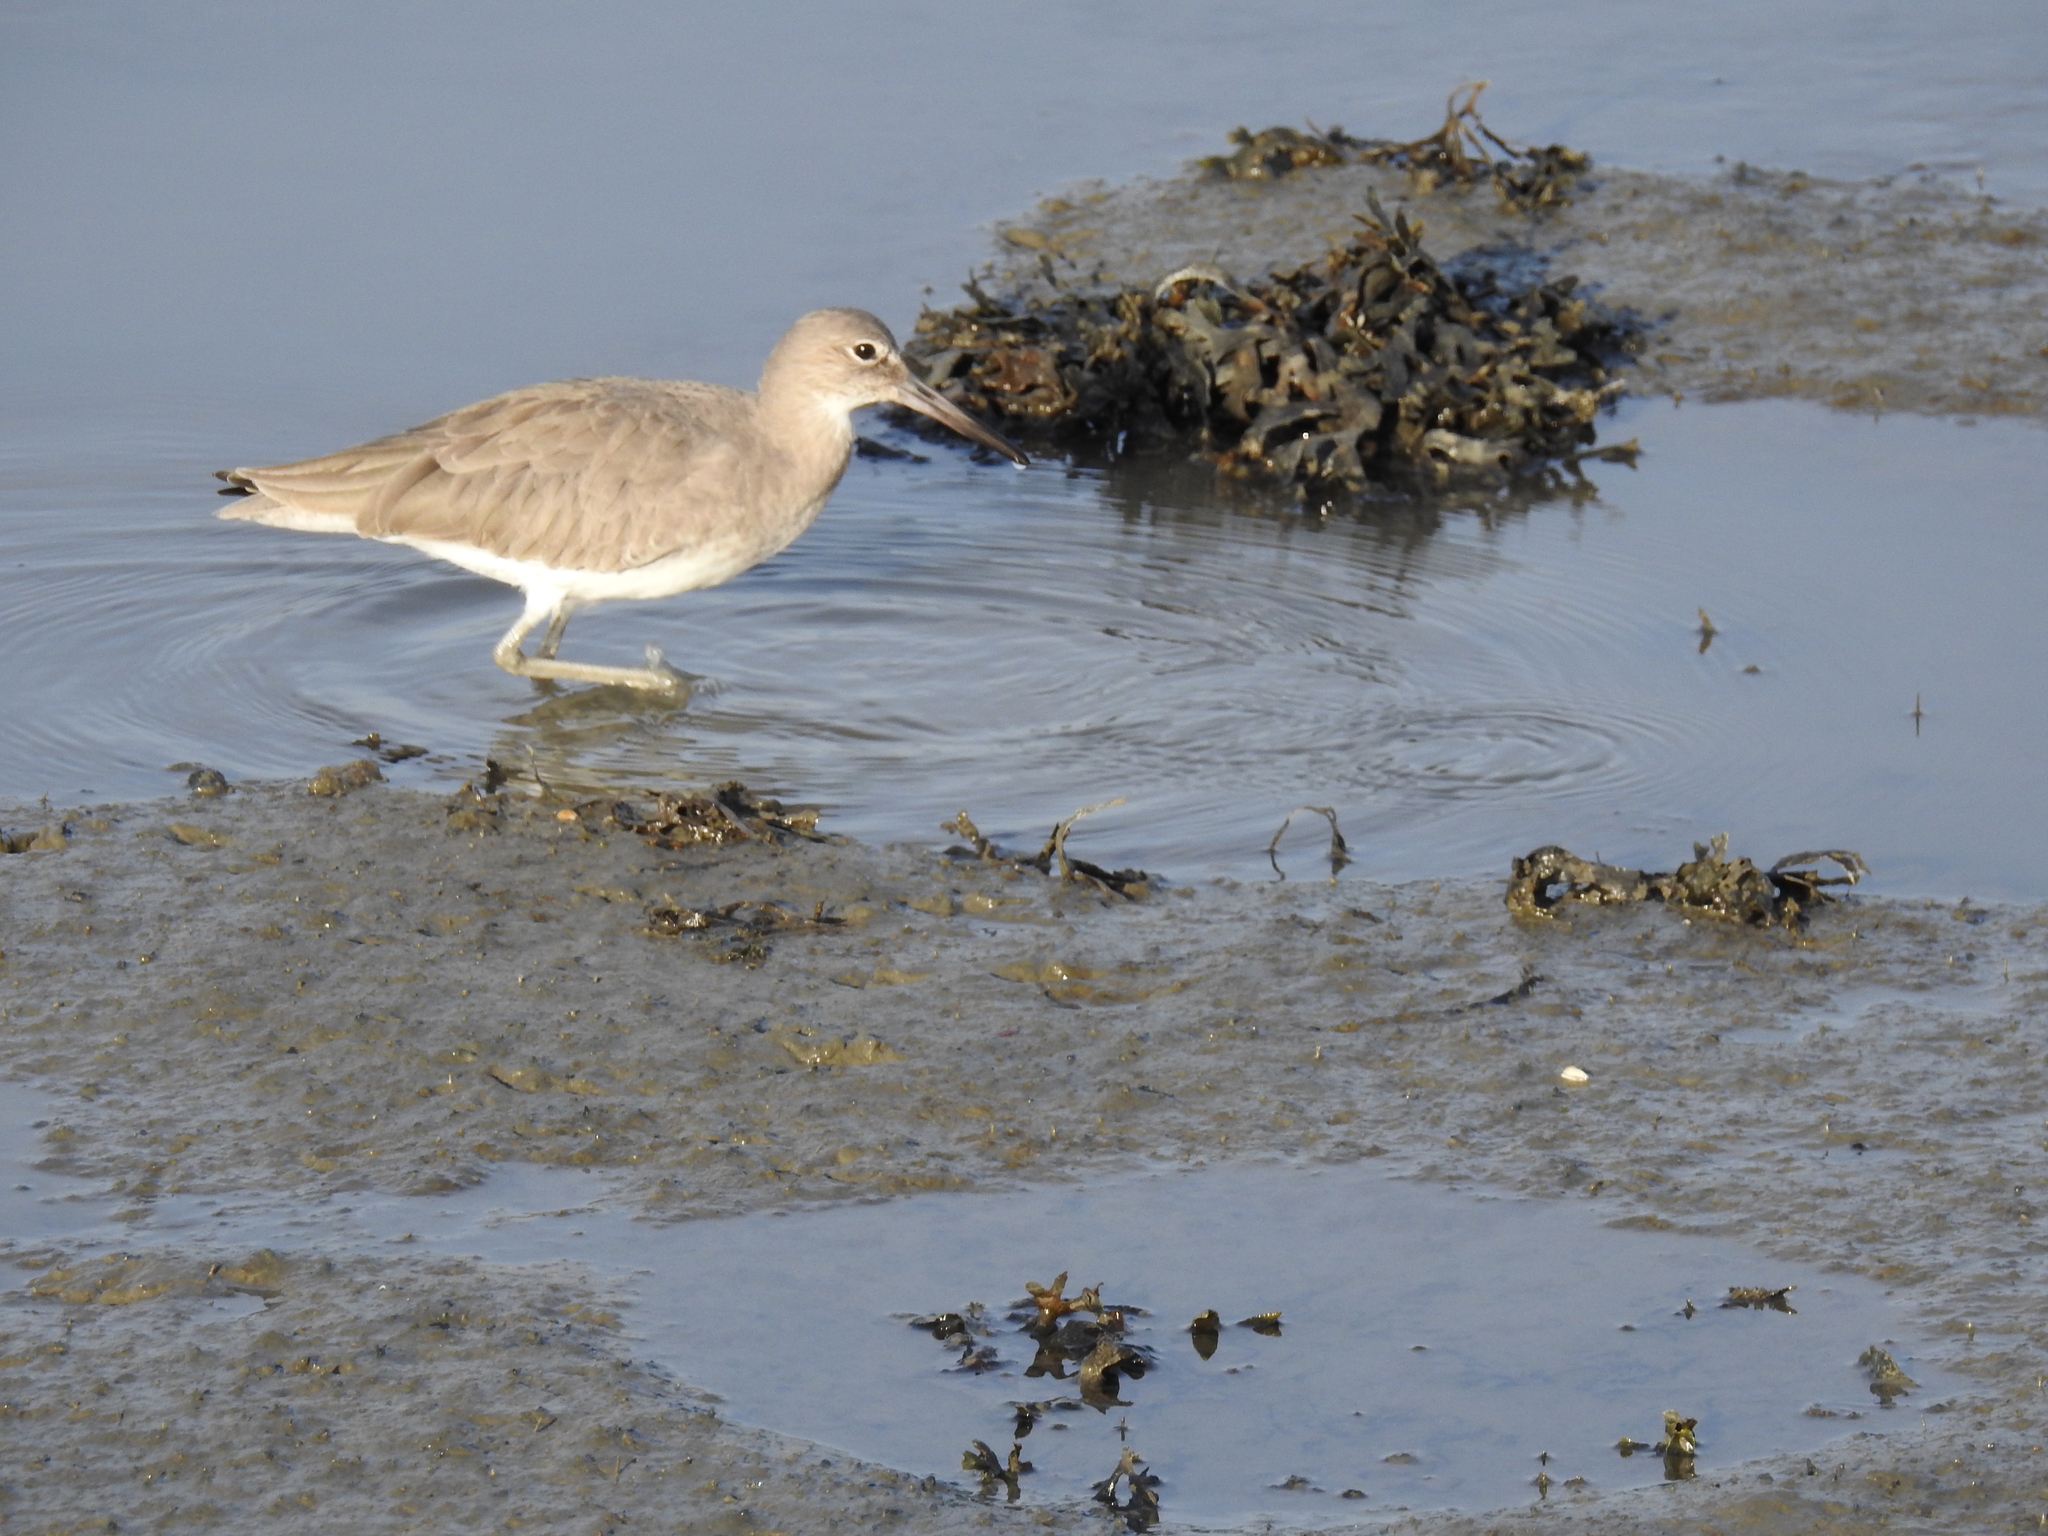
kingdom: Animalia
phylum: Chordata
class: Aves
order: Charadriiformes
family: Scolopacidae
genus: Tringa
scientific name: Tringa semipalmata
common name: Willet
